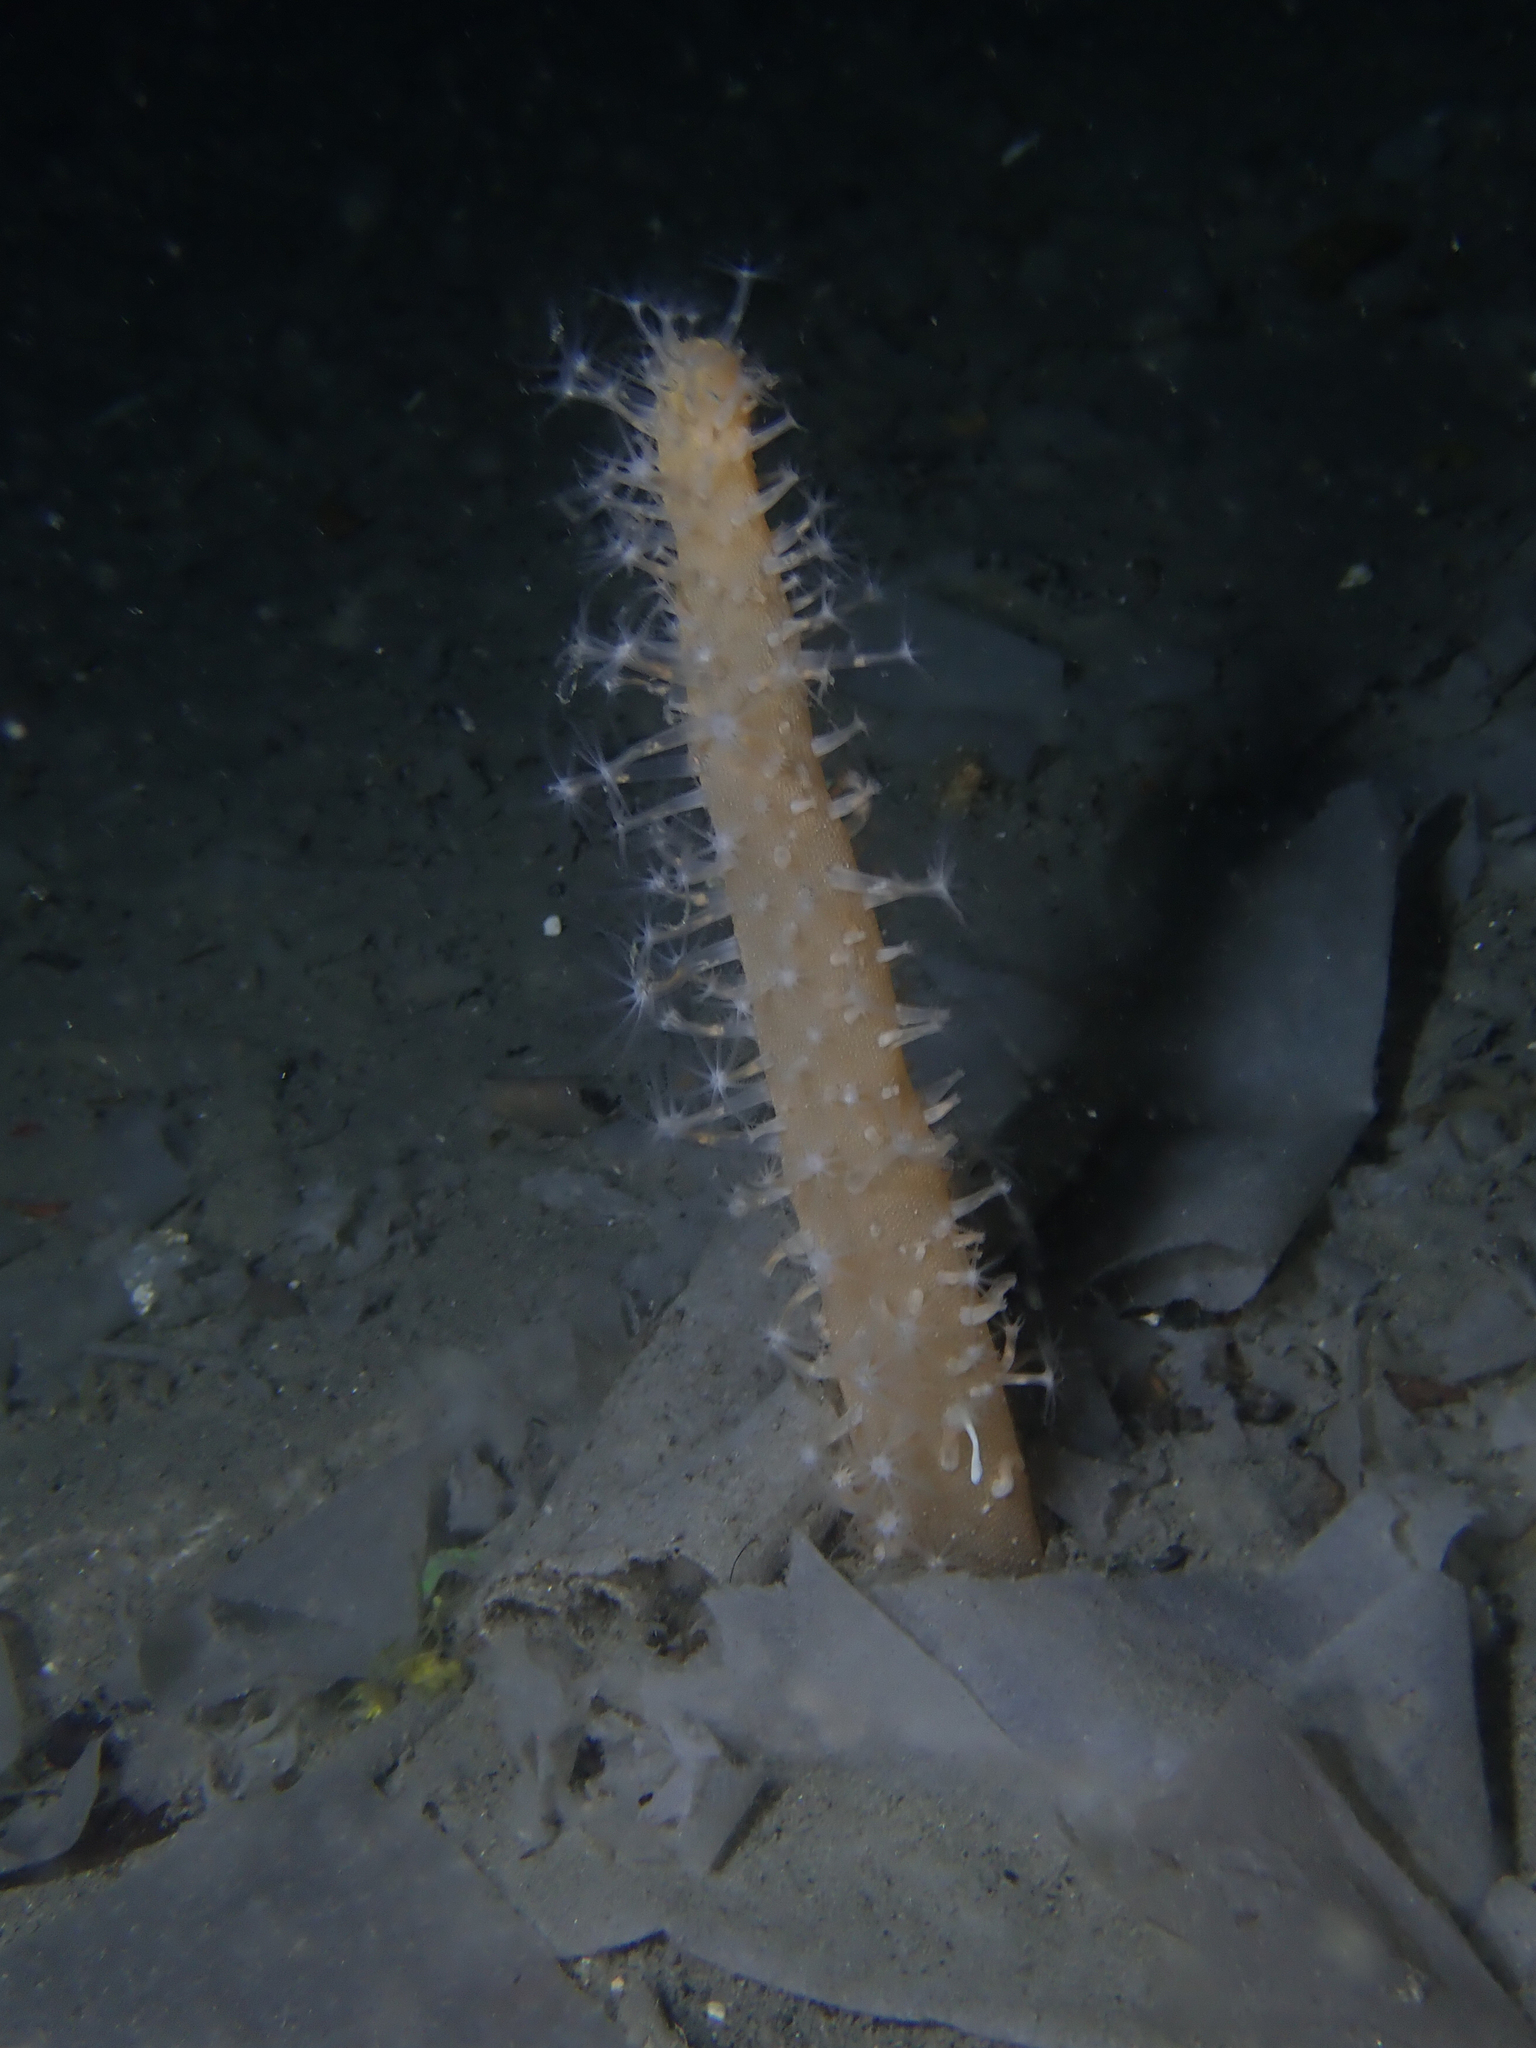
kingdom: Animalia
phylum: Cnidaria
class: Anthozoa
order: Scleralcyonacea
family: Veretillidae
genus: Veretillum
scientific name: Veretillum cynomorium
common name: Finger-shaped sea-pen
